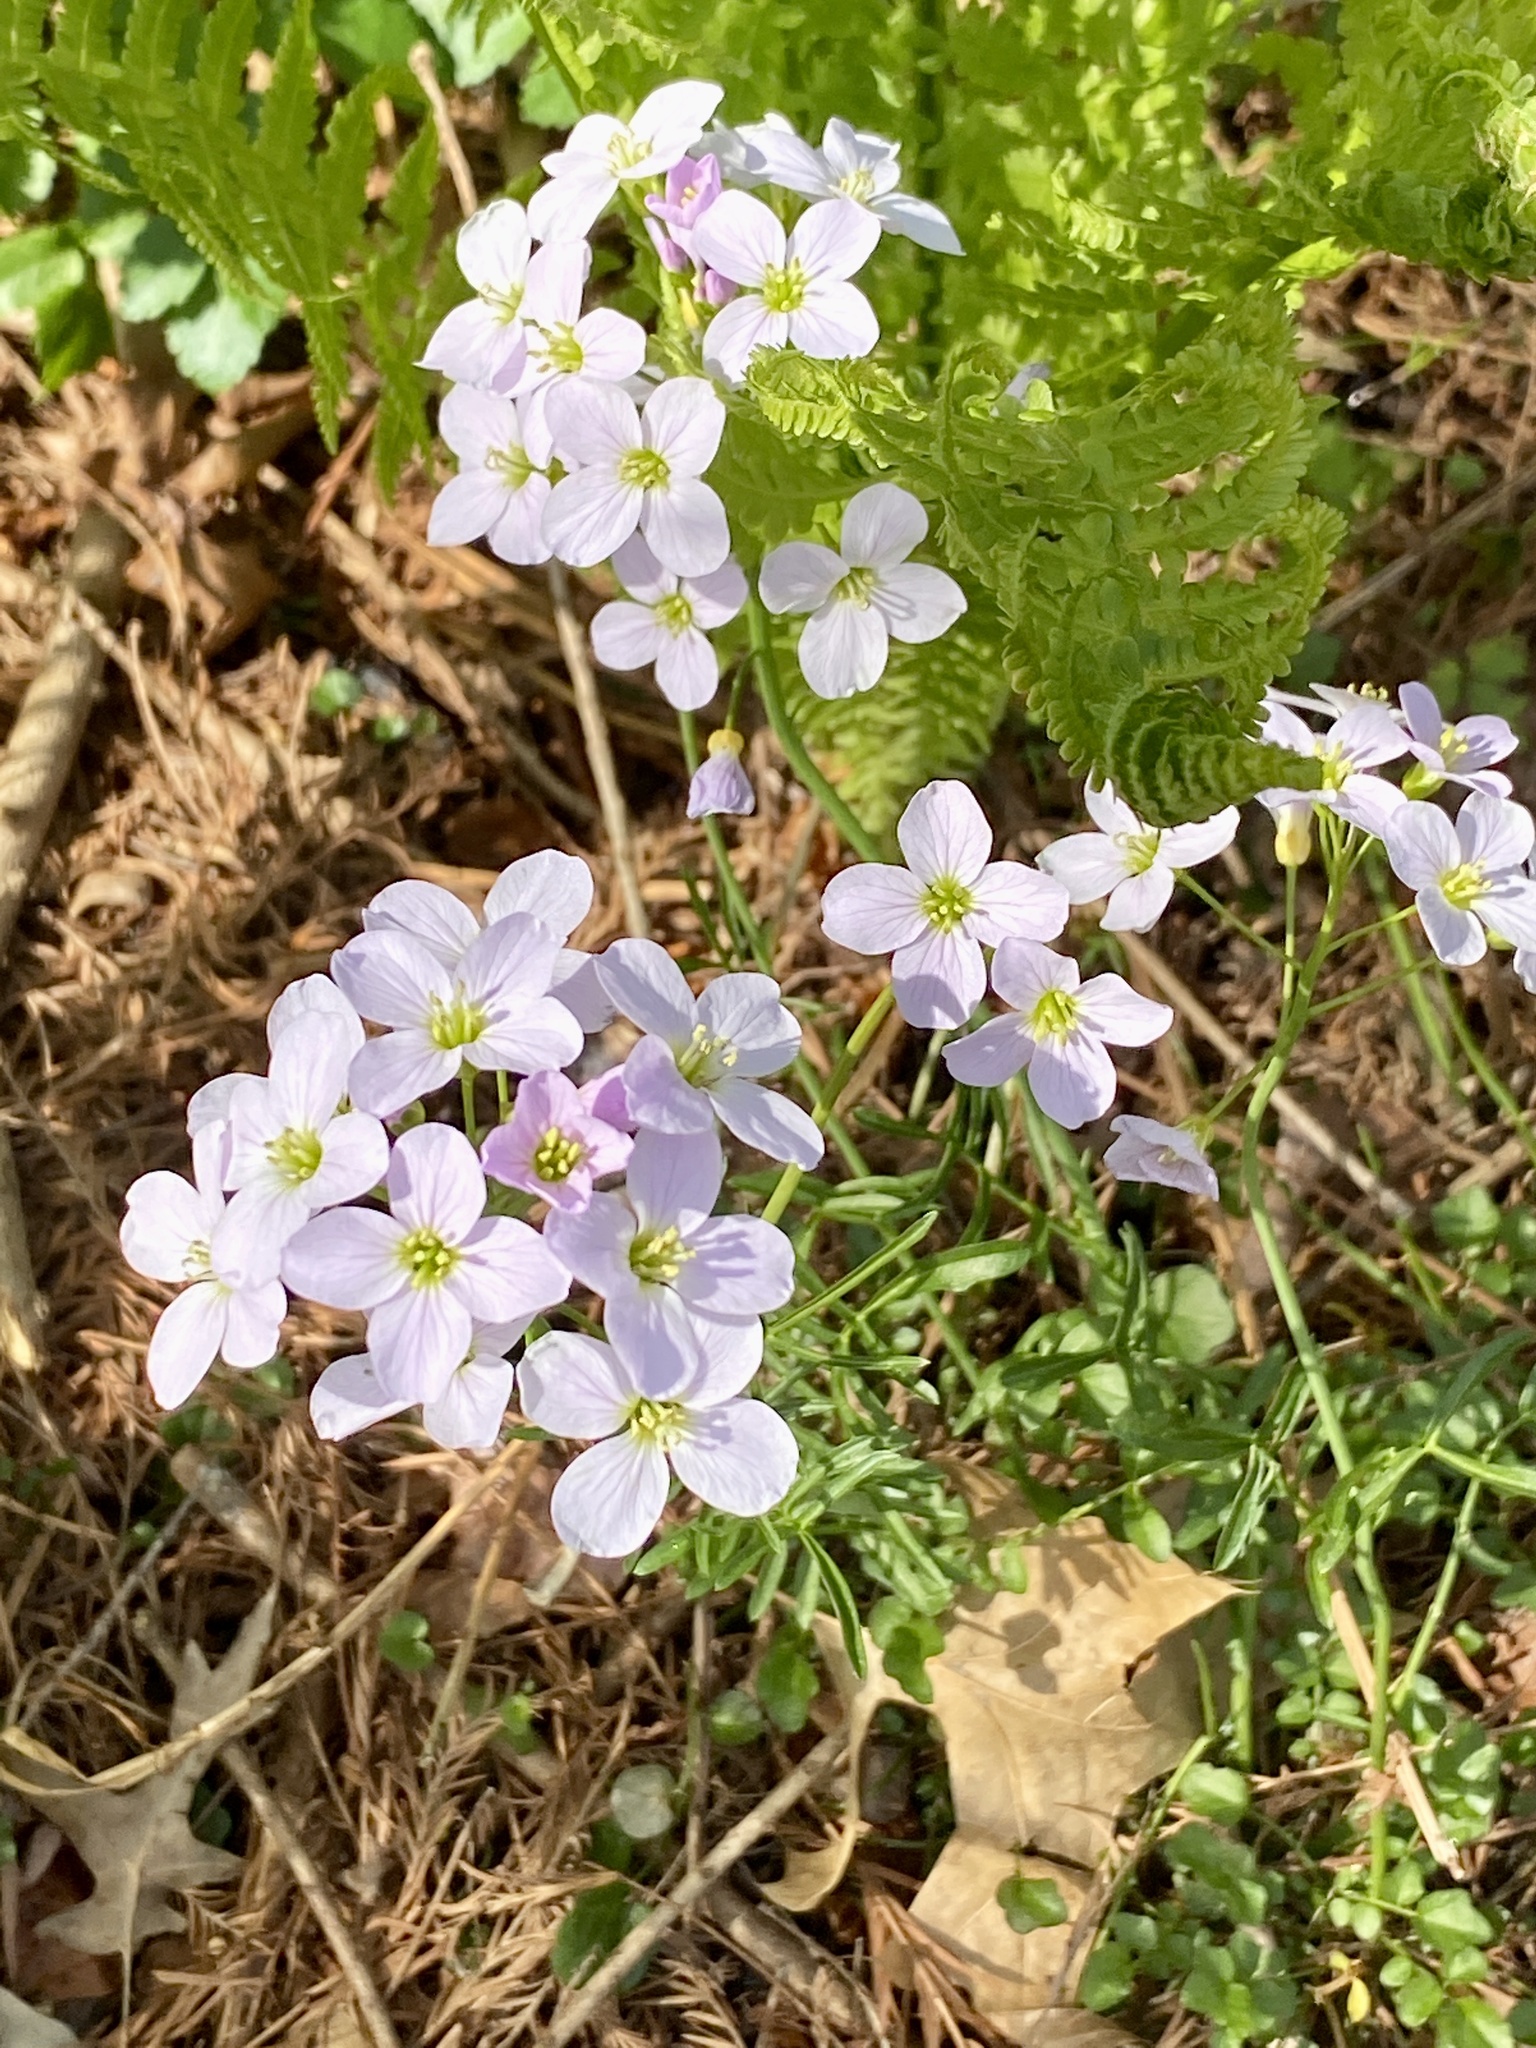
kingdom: Plantae
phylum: Tracheophyta
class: Magnoliopsida
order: Brassicales
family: Brassicaceae
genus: Cardamine
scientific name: Cardamine pratensis
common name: Cuckoo flower
